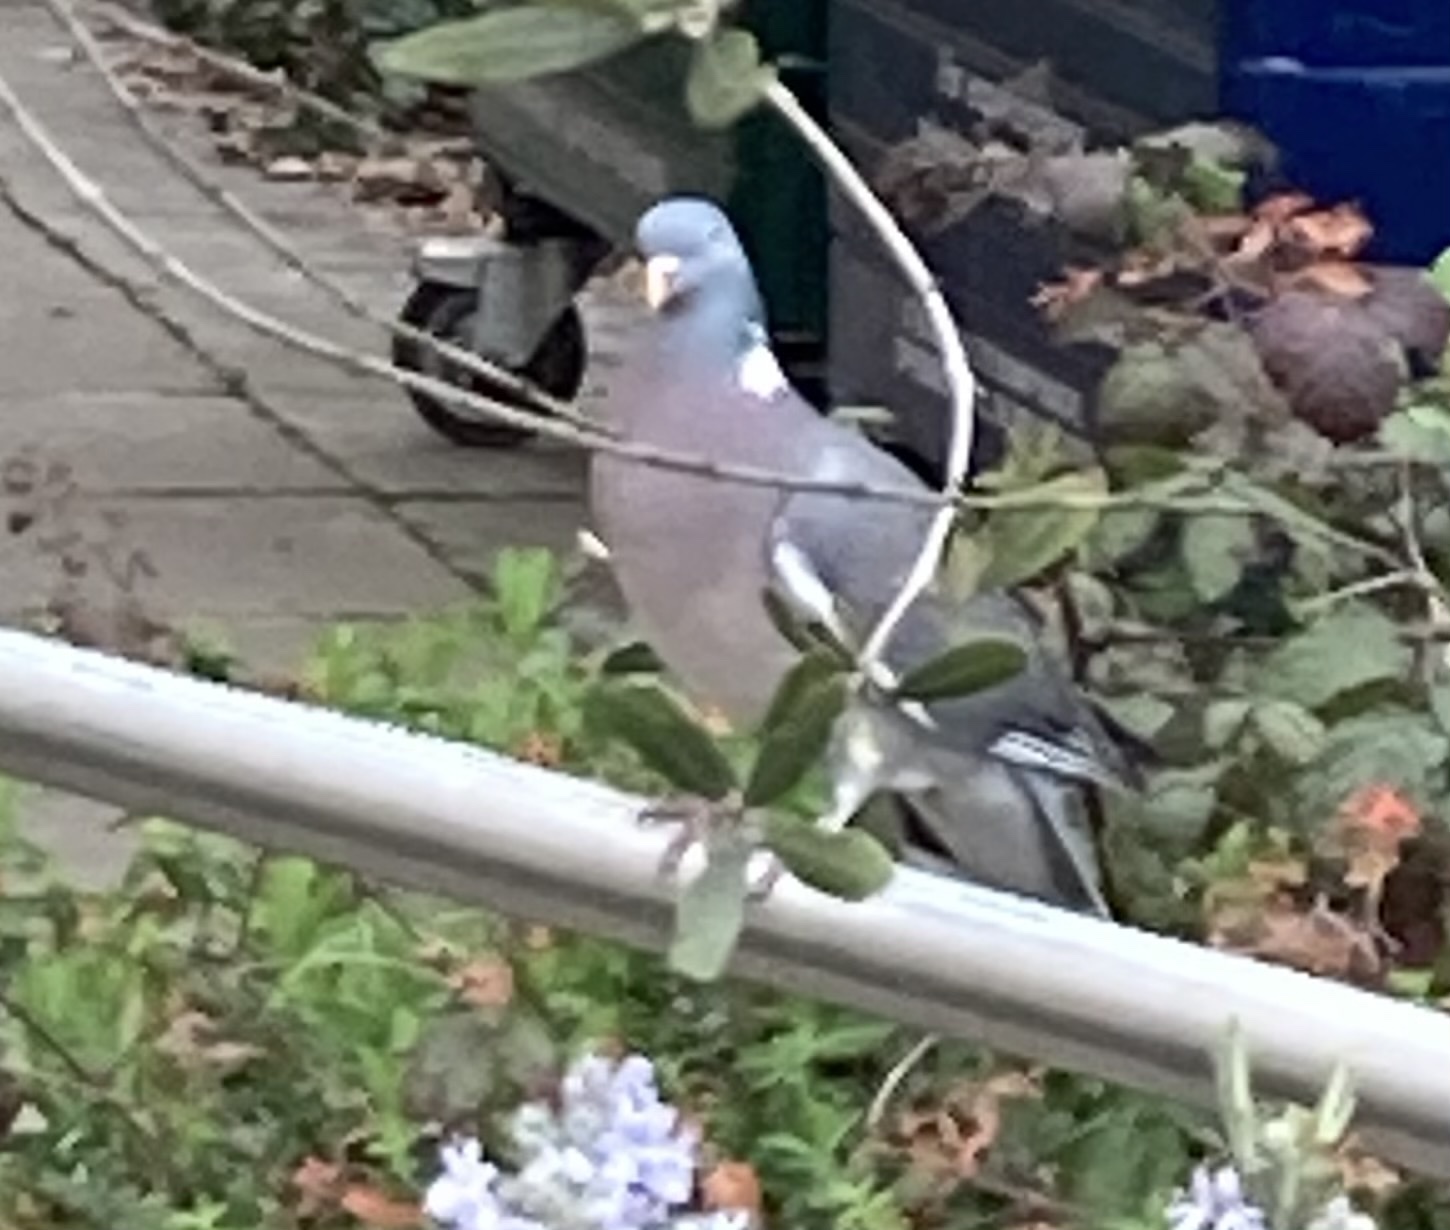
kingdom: Animalia
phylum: Chordata
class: Aves
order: Columbiformes
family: Columbidae
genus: Columba
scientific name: Columba palumbus
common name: Common wood pigeon
